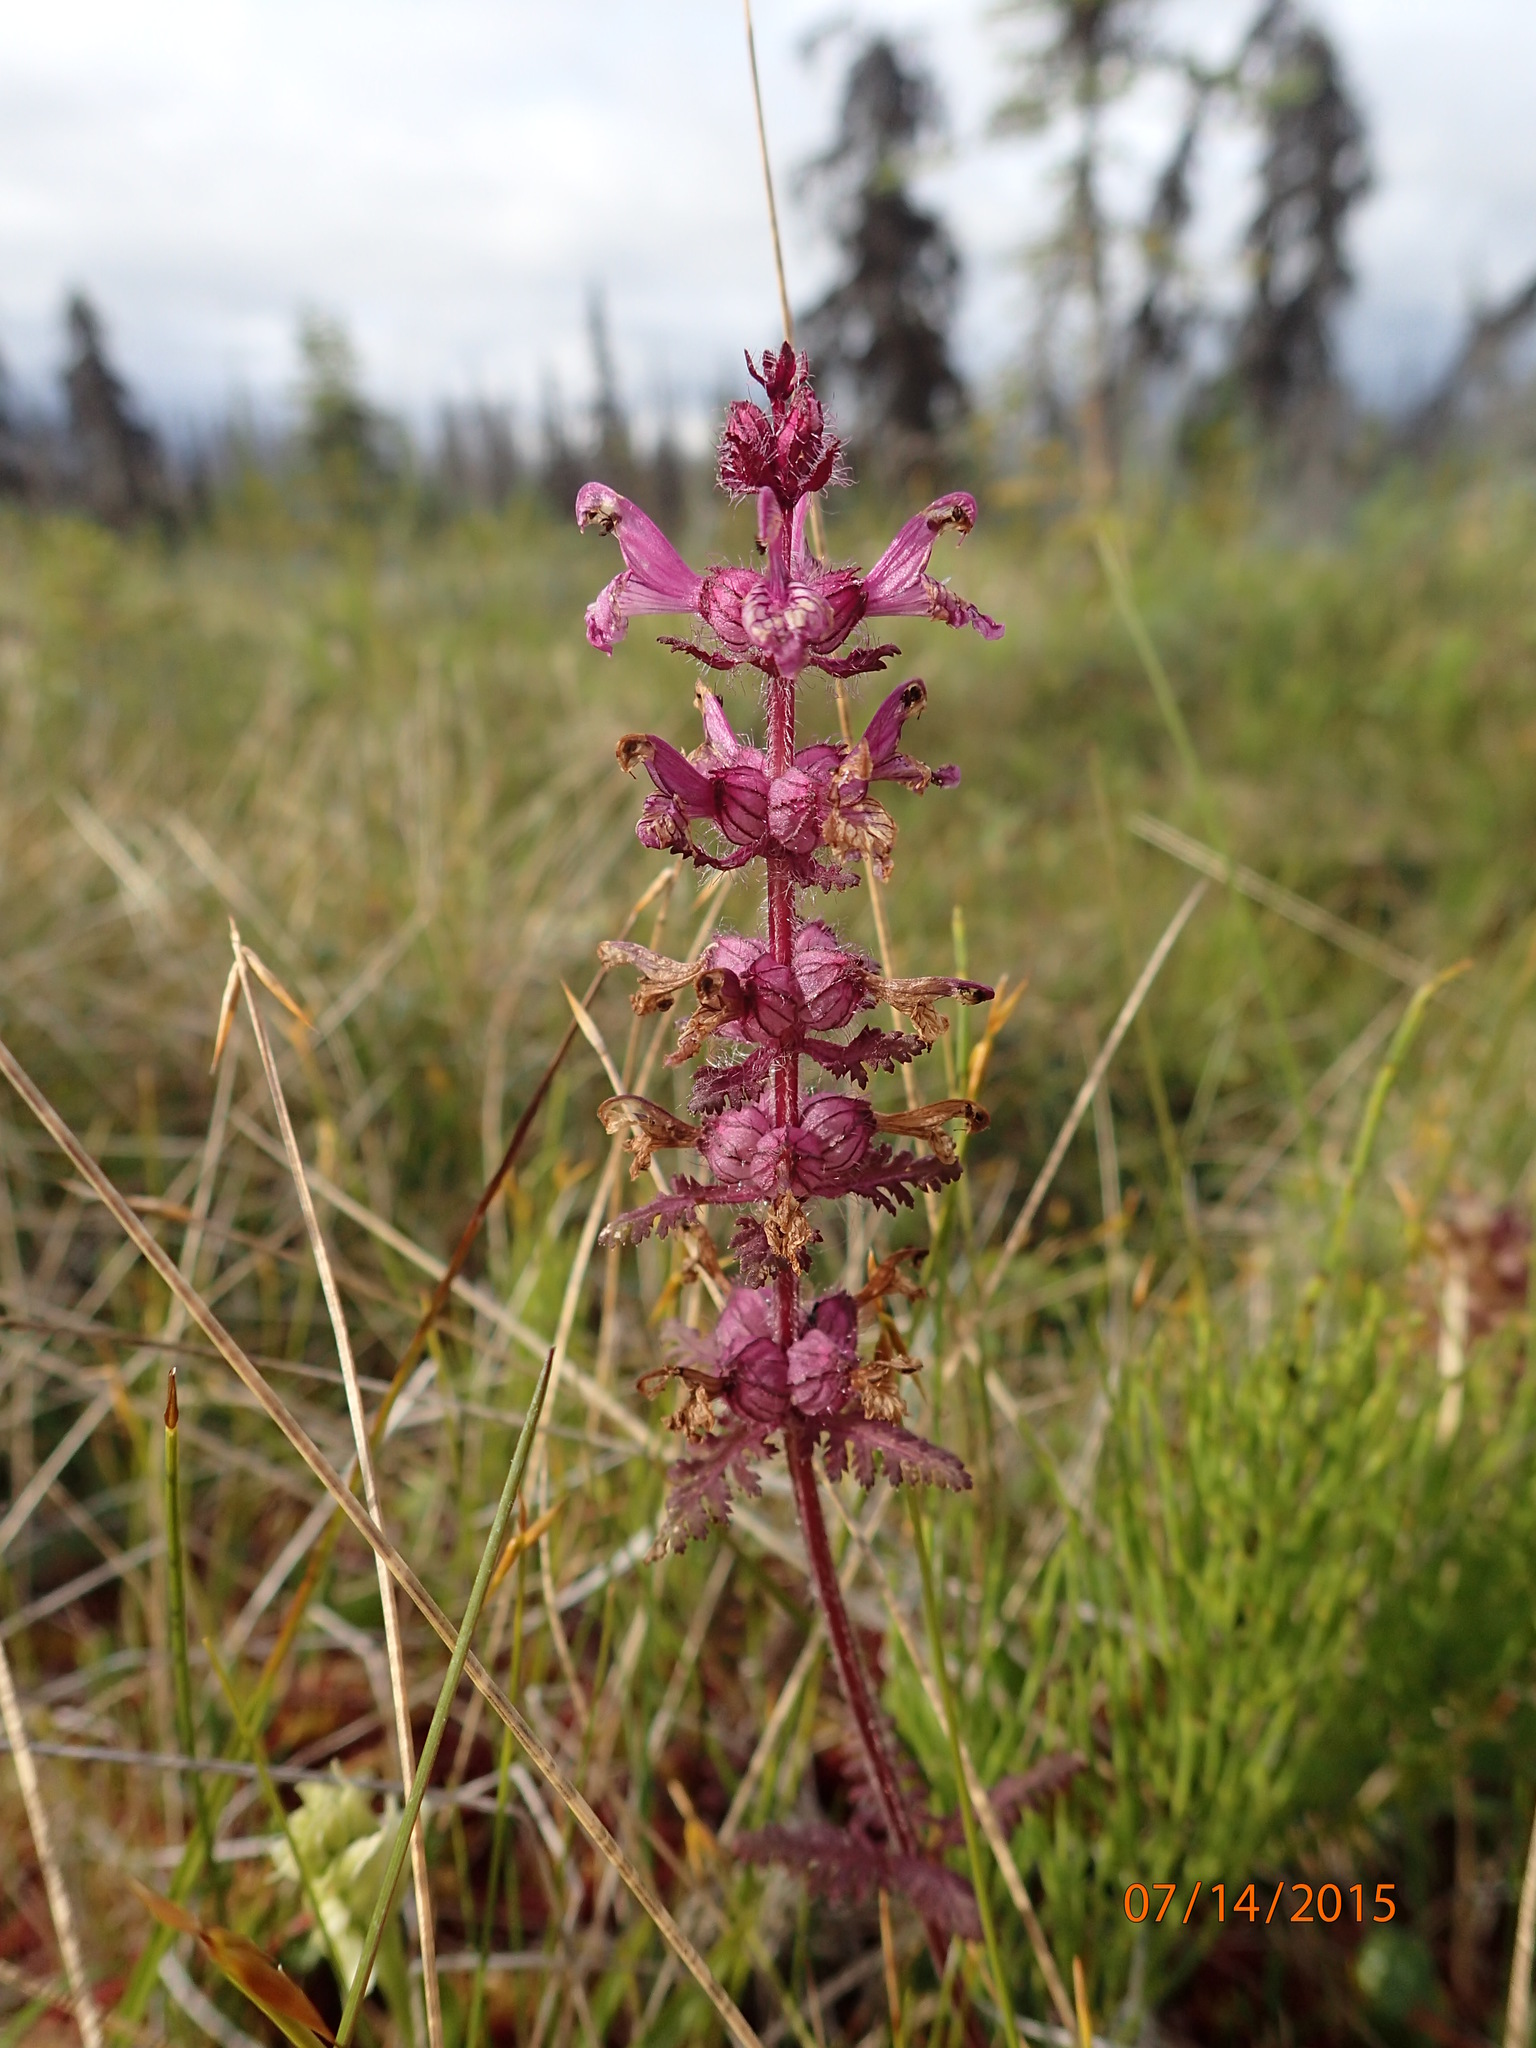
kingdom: Plantae
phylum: Tracheophyta
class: Magnoliopsida
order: Lamiales
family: Orobanchaceae
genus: Pedicularis
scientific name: Pedicularis verticillata
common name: Whorled lousewort
